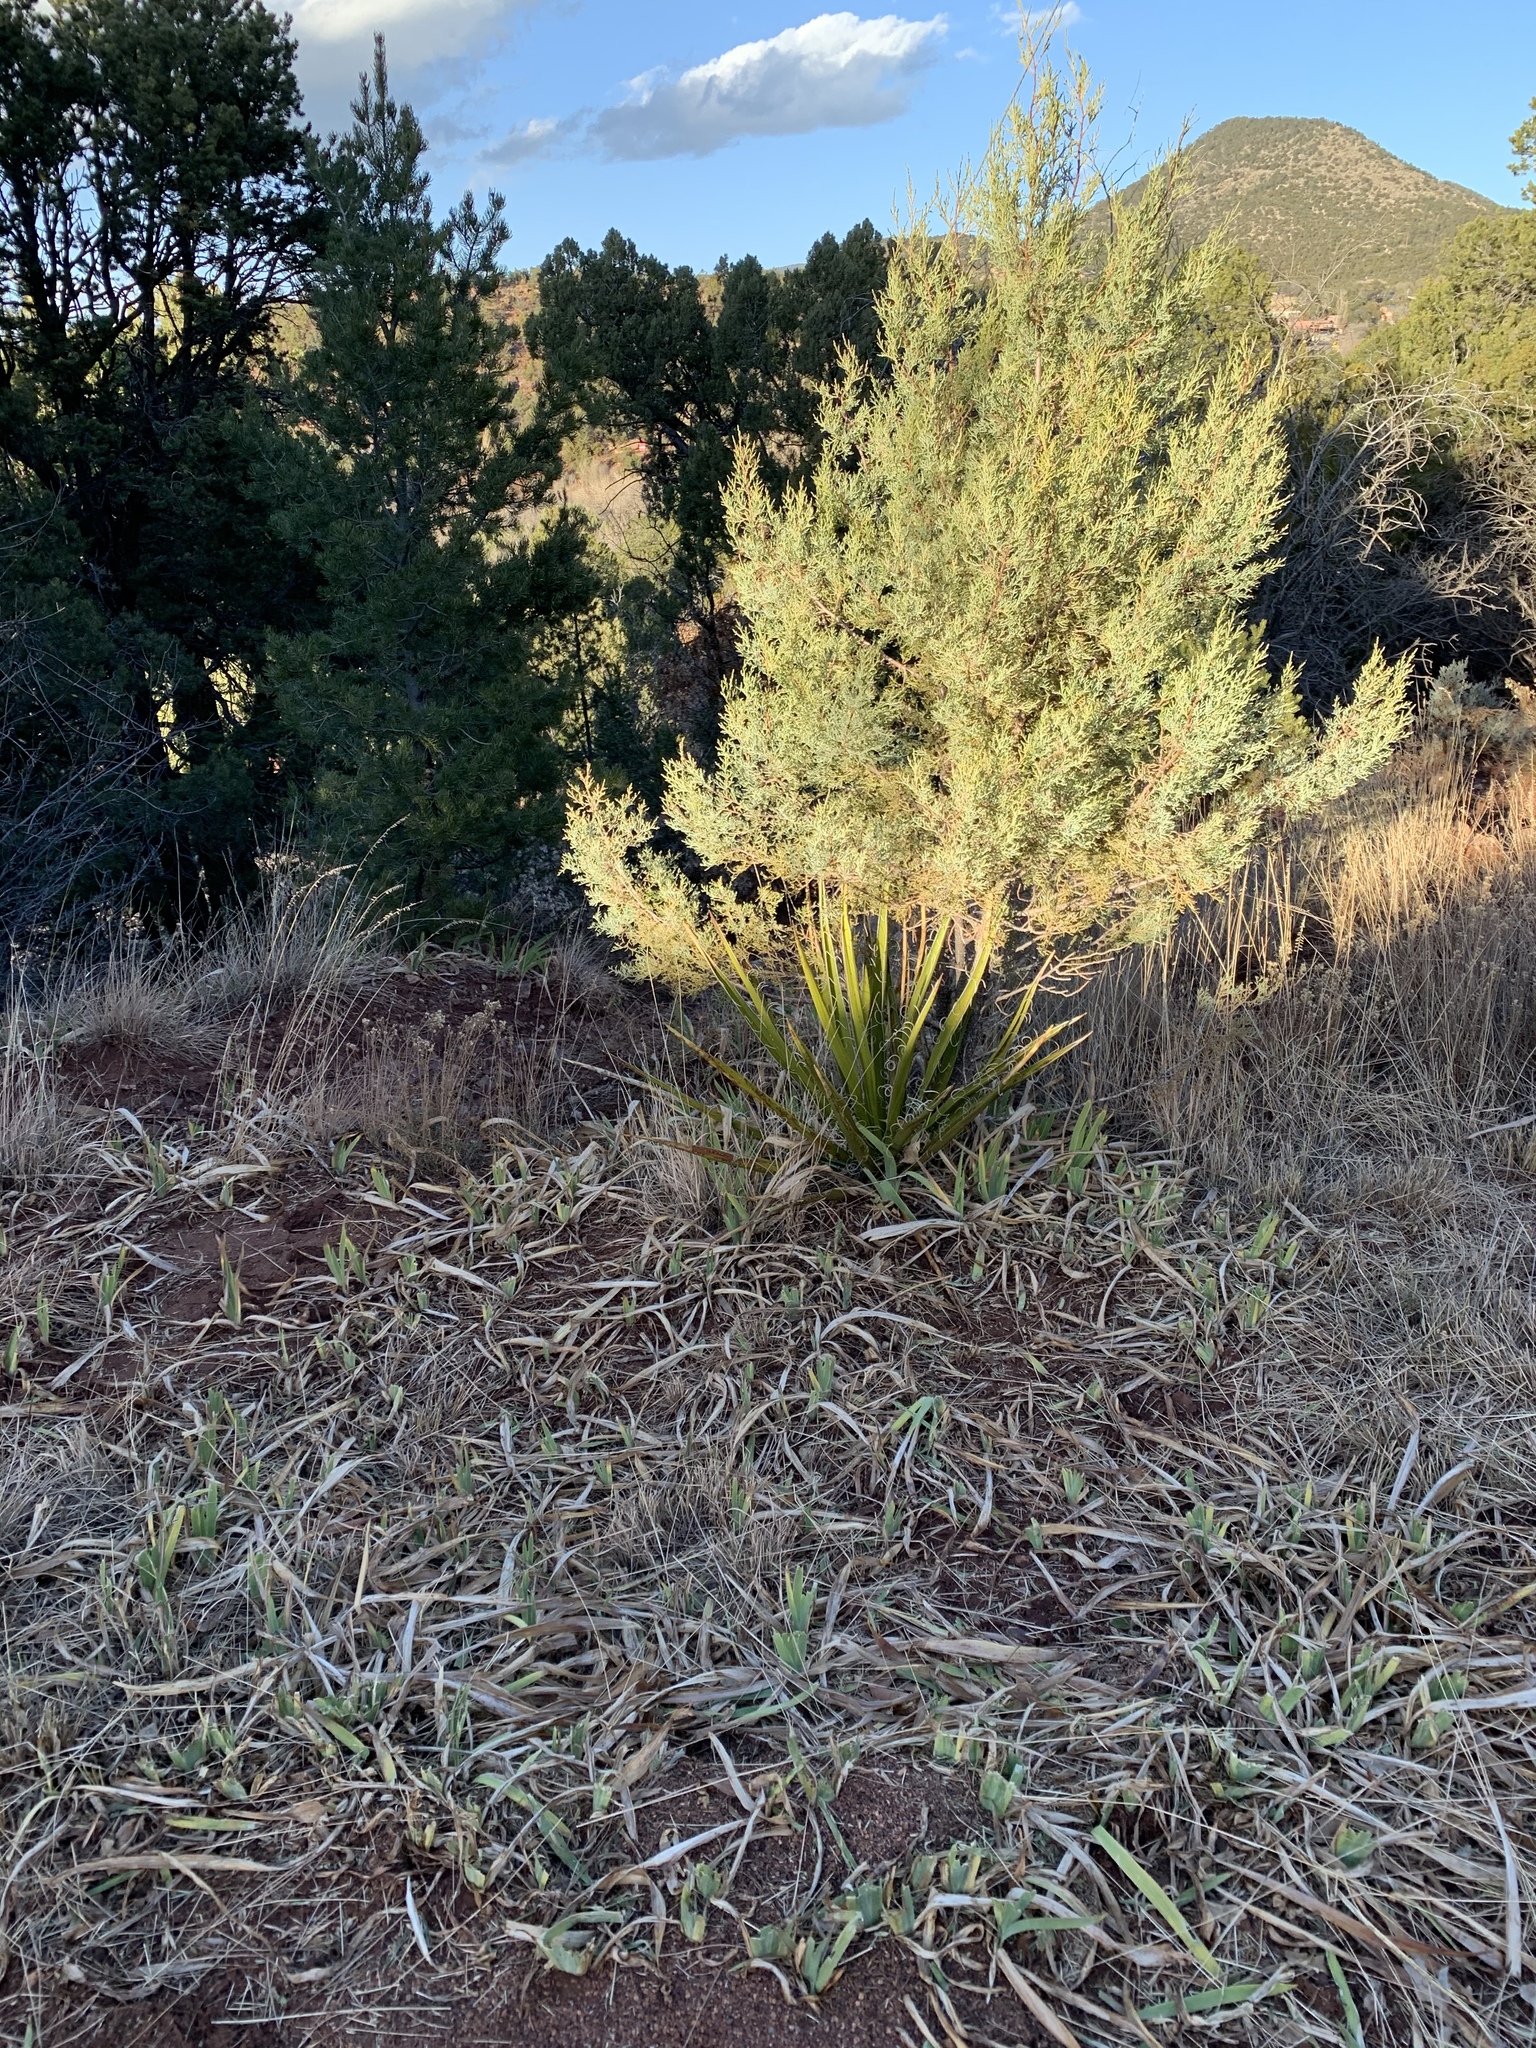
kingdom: Plantae
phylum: Tracheophyta
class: Liliopsida
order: Asparagales
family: Asparagaceae
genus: Yucca
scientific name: Yucca baccata
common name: Banana yucca
